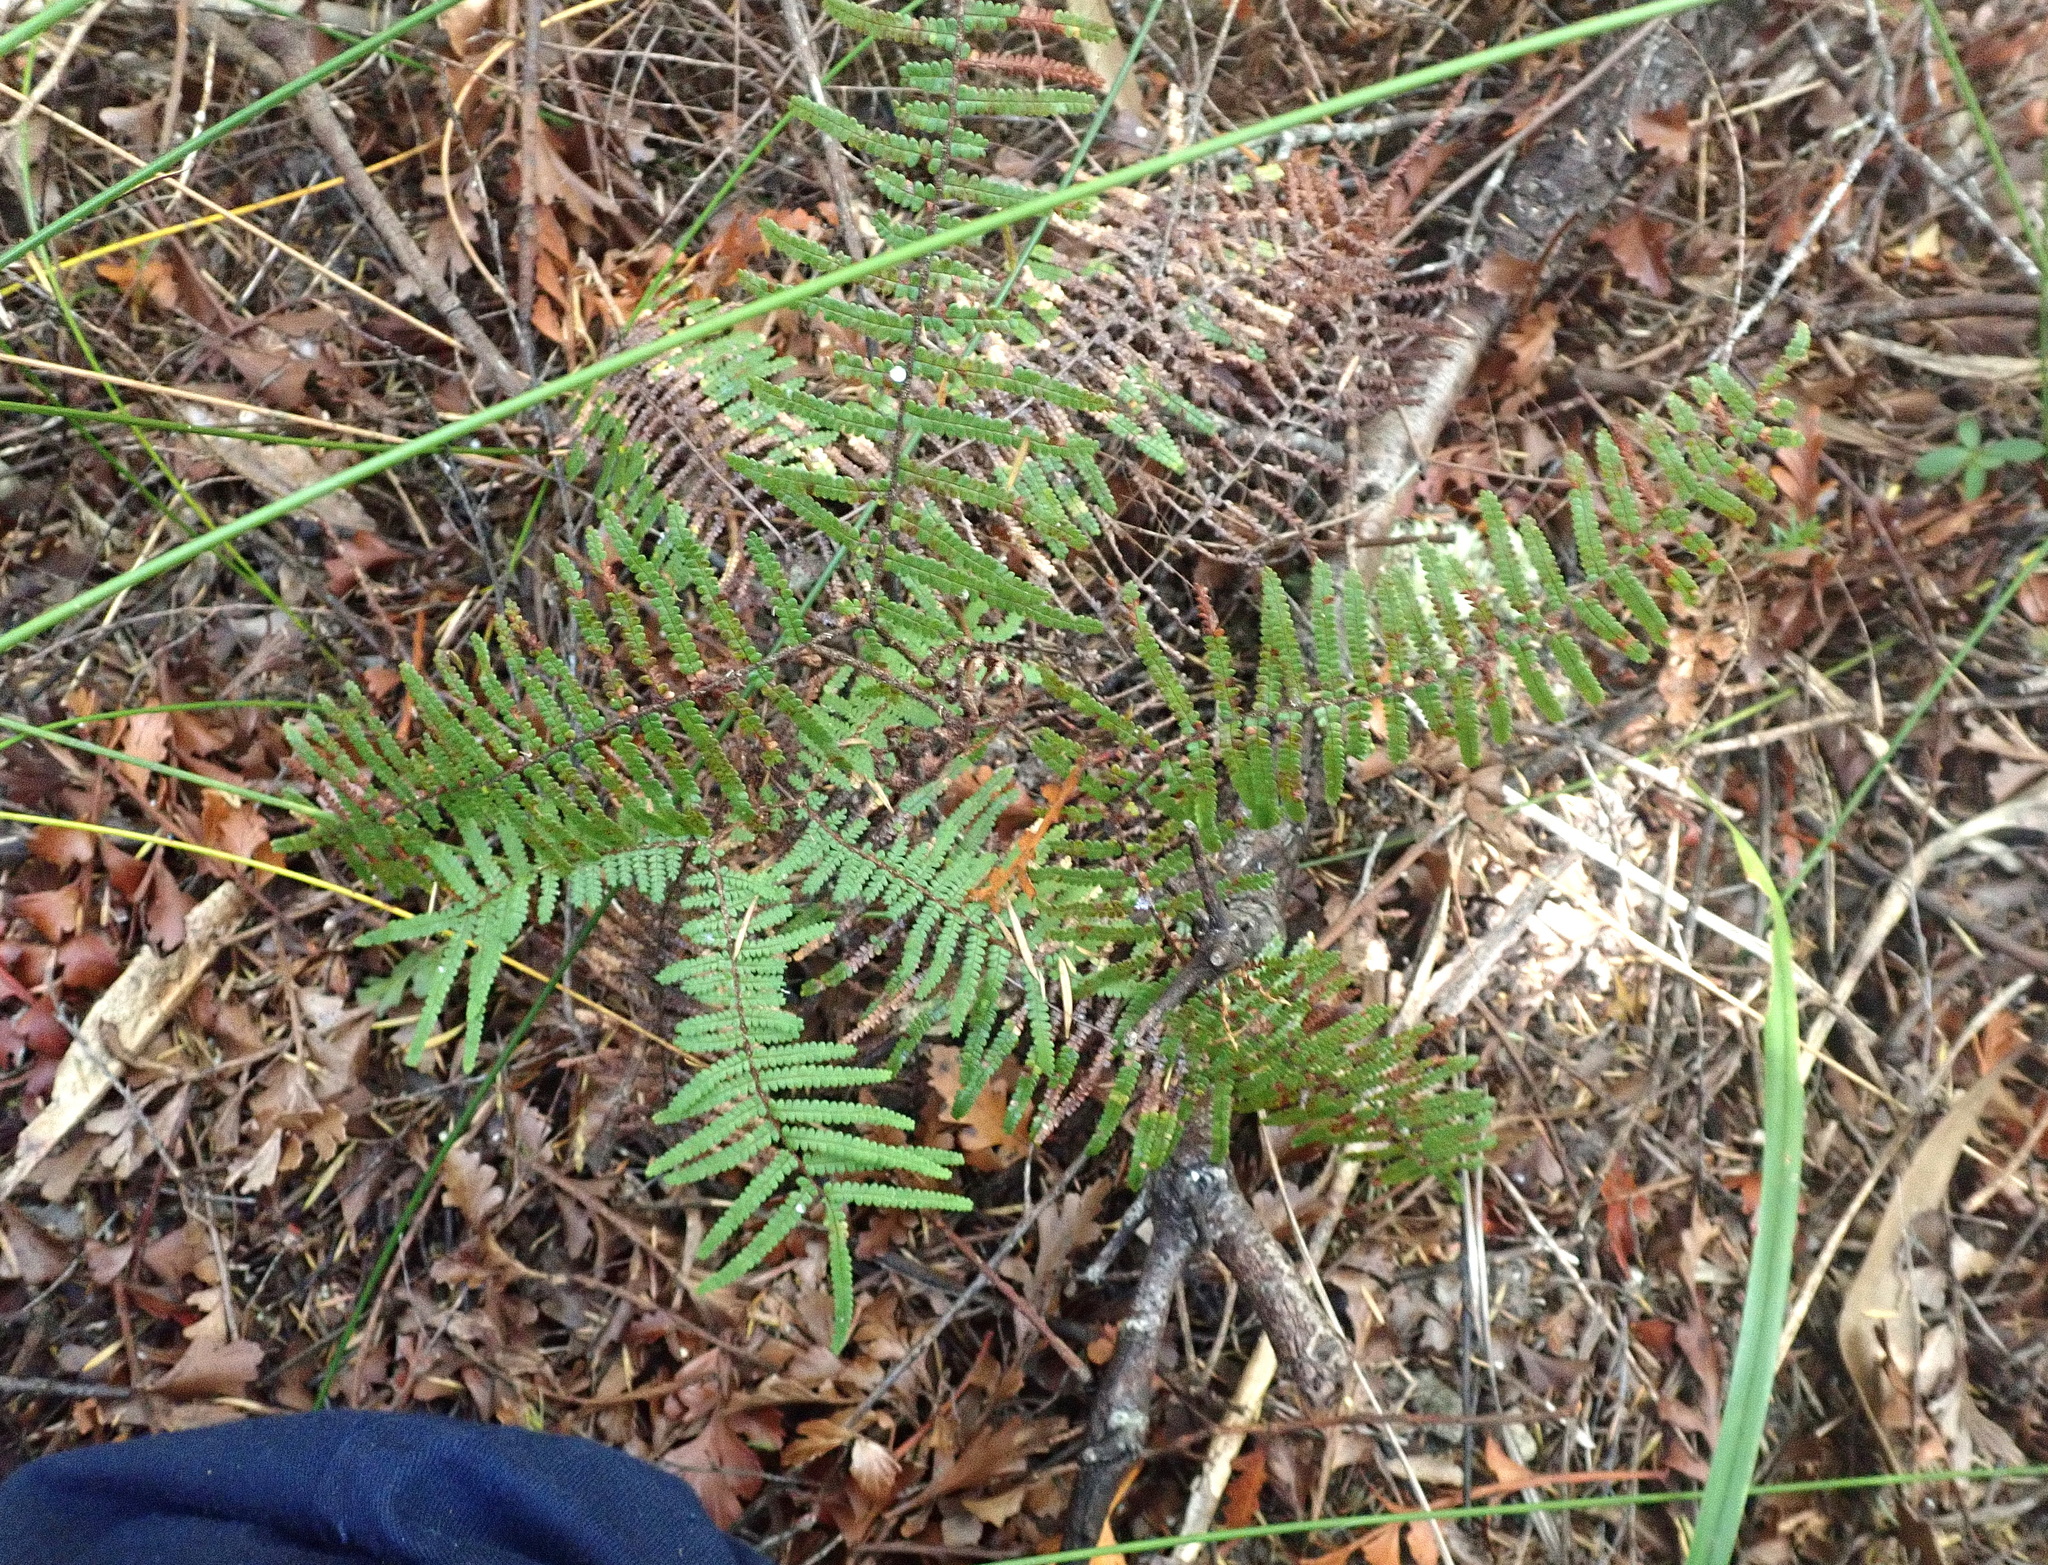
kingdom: Plantae
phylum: Tracheophyta
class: Polypodiopsida
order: Gleicheniales
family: Gleicheniaceae
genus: Gleichenia
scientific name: Gleichenia microphylla
